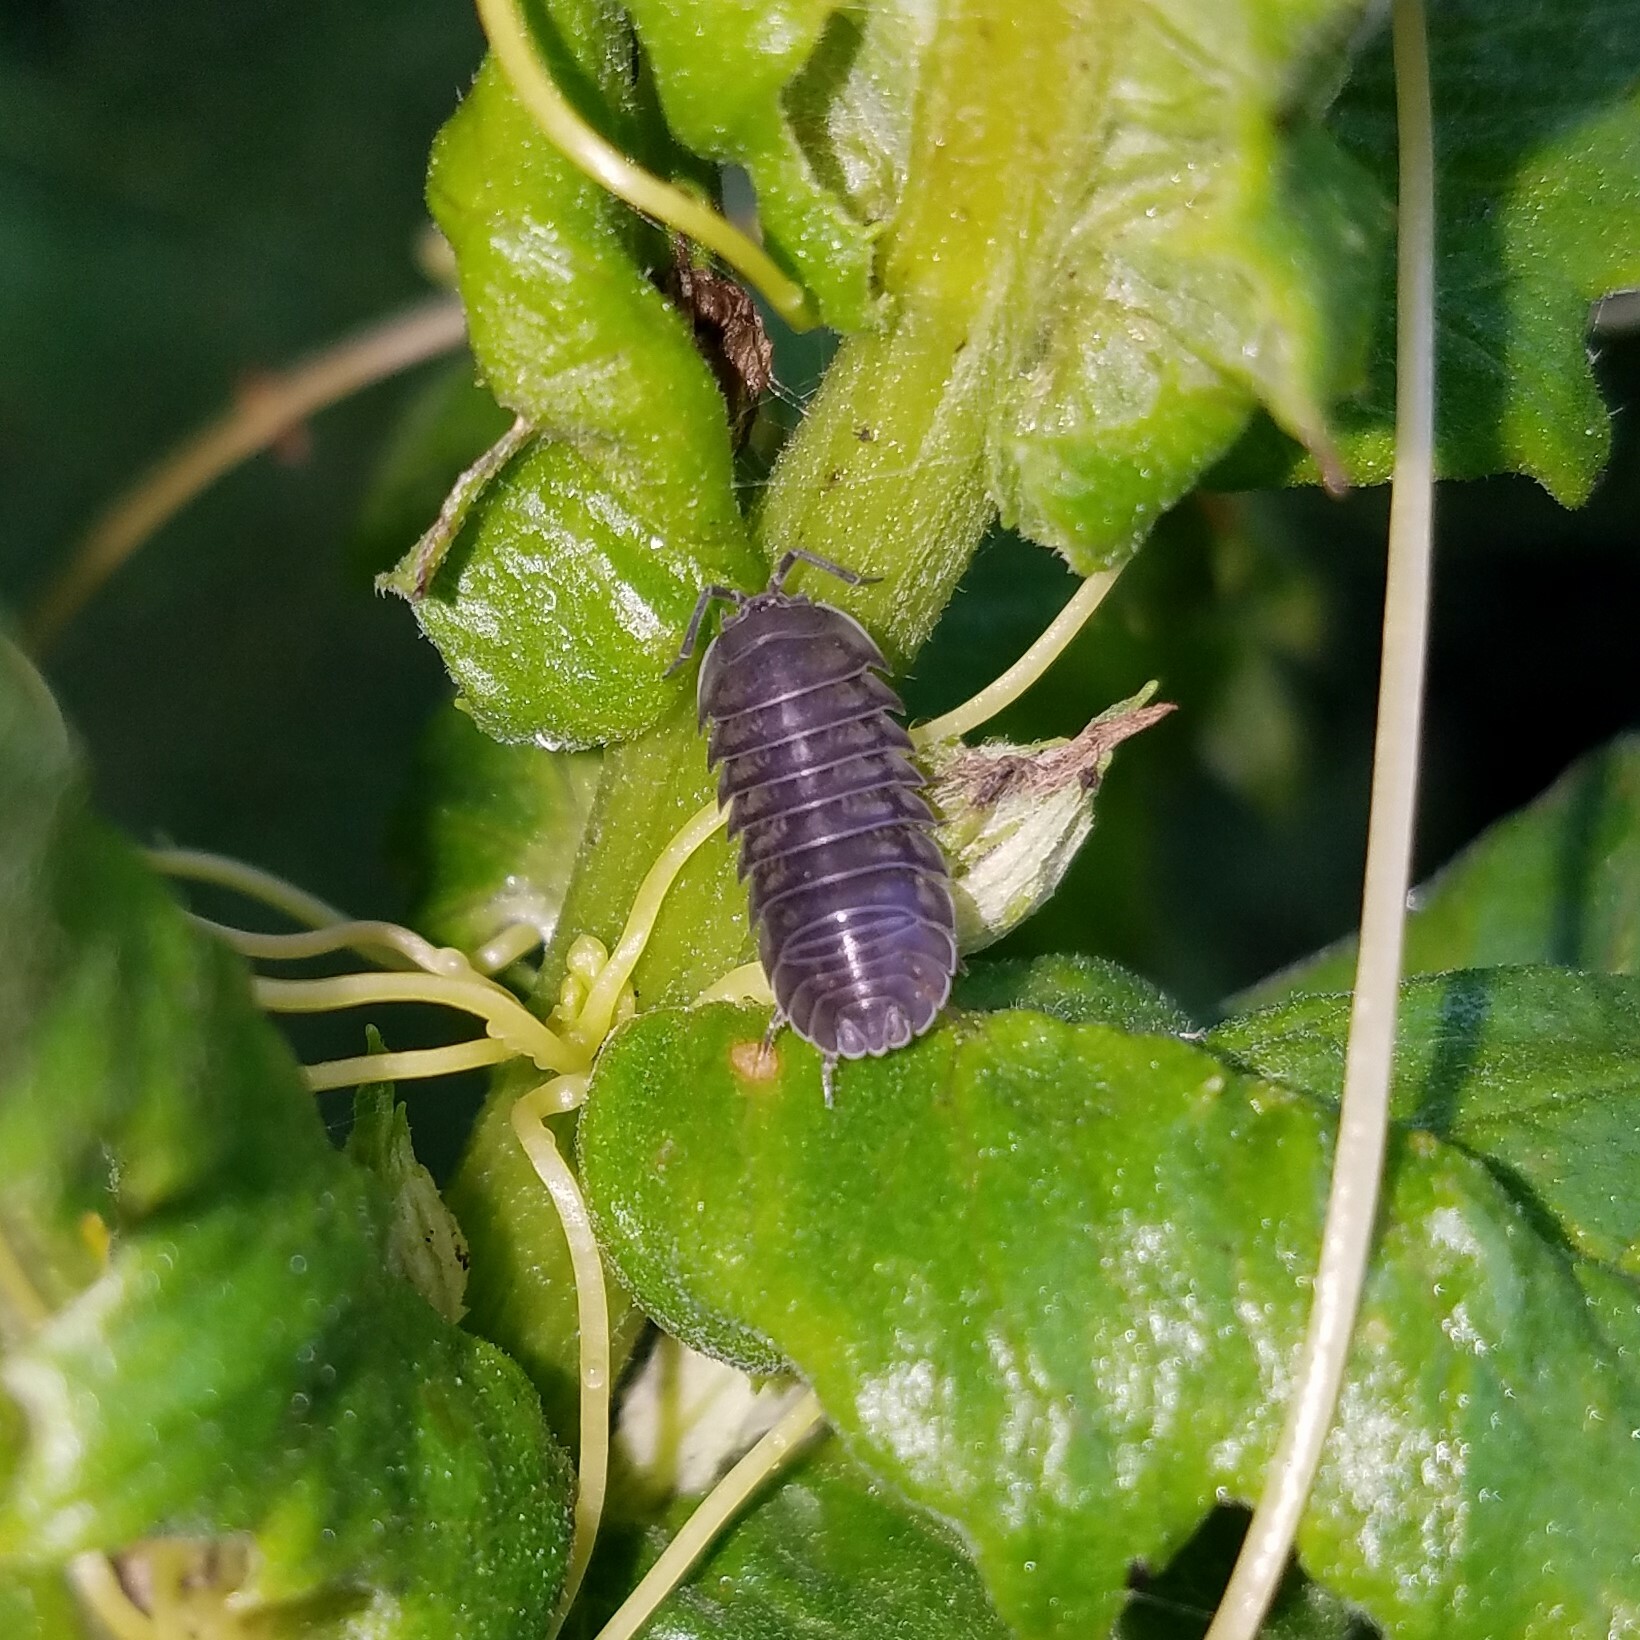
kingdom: Animalia
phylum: Arthropoda
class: Malacostraca
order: Isopoda
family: Armadillidiidae
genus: Armadillidium
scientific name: Armadillidium nasatum
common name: Isopod
